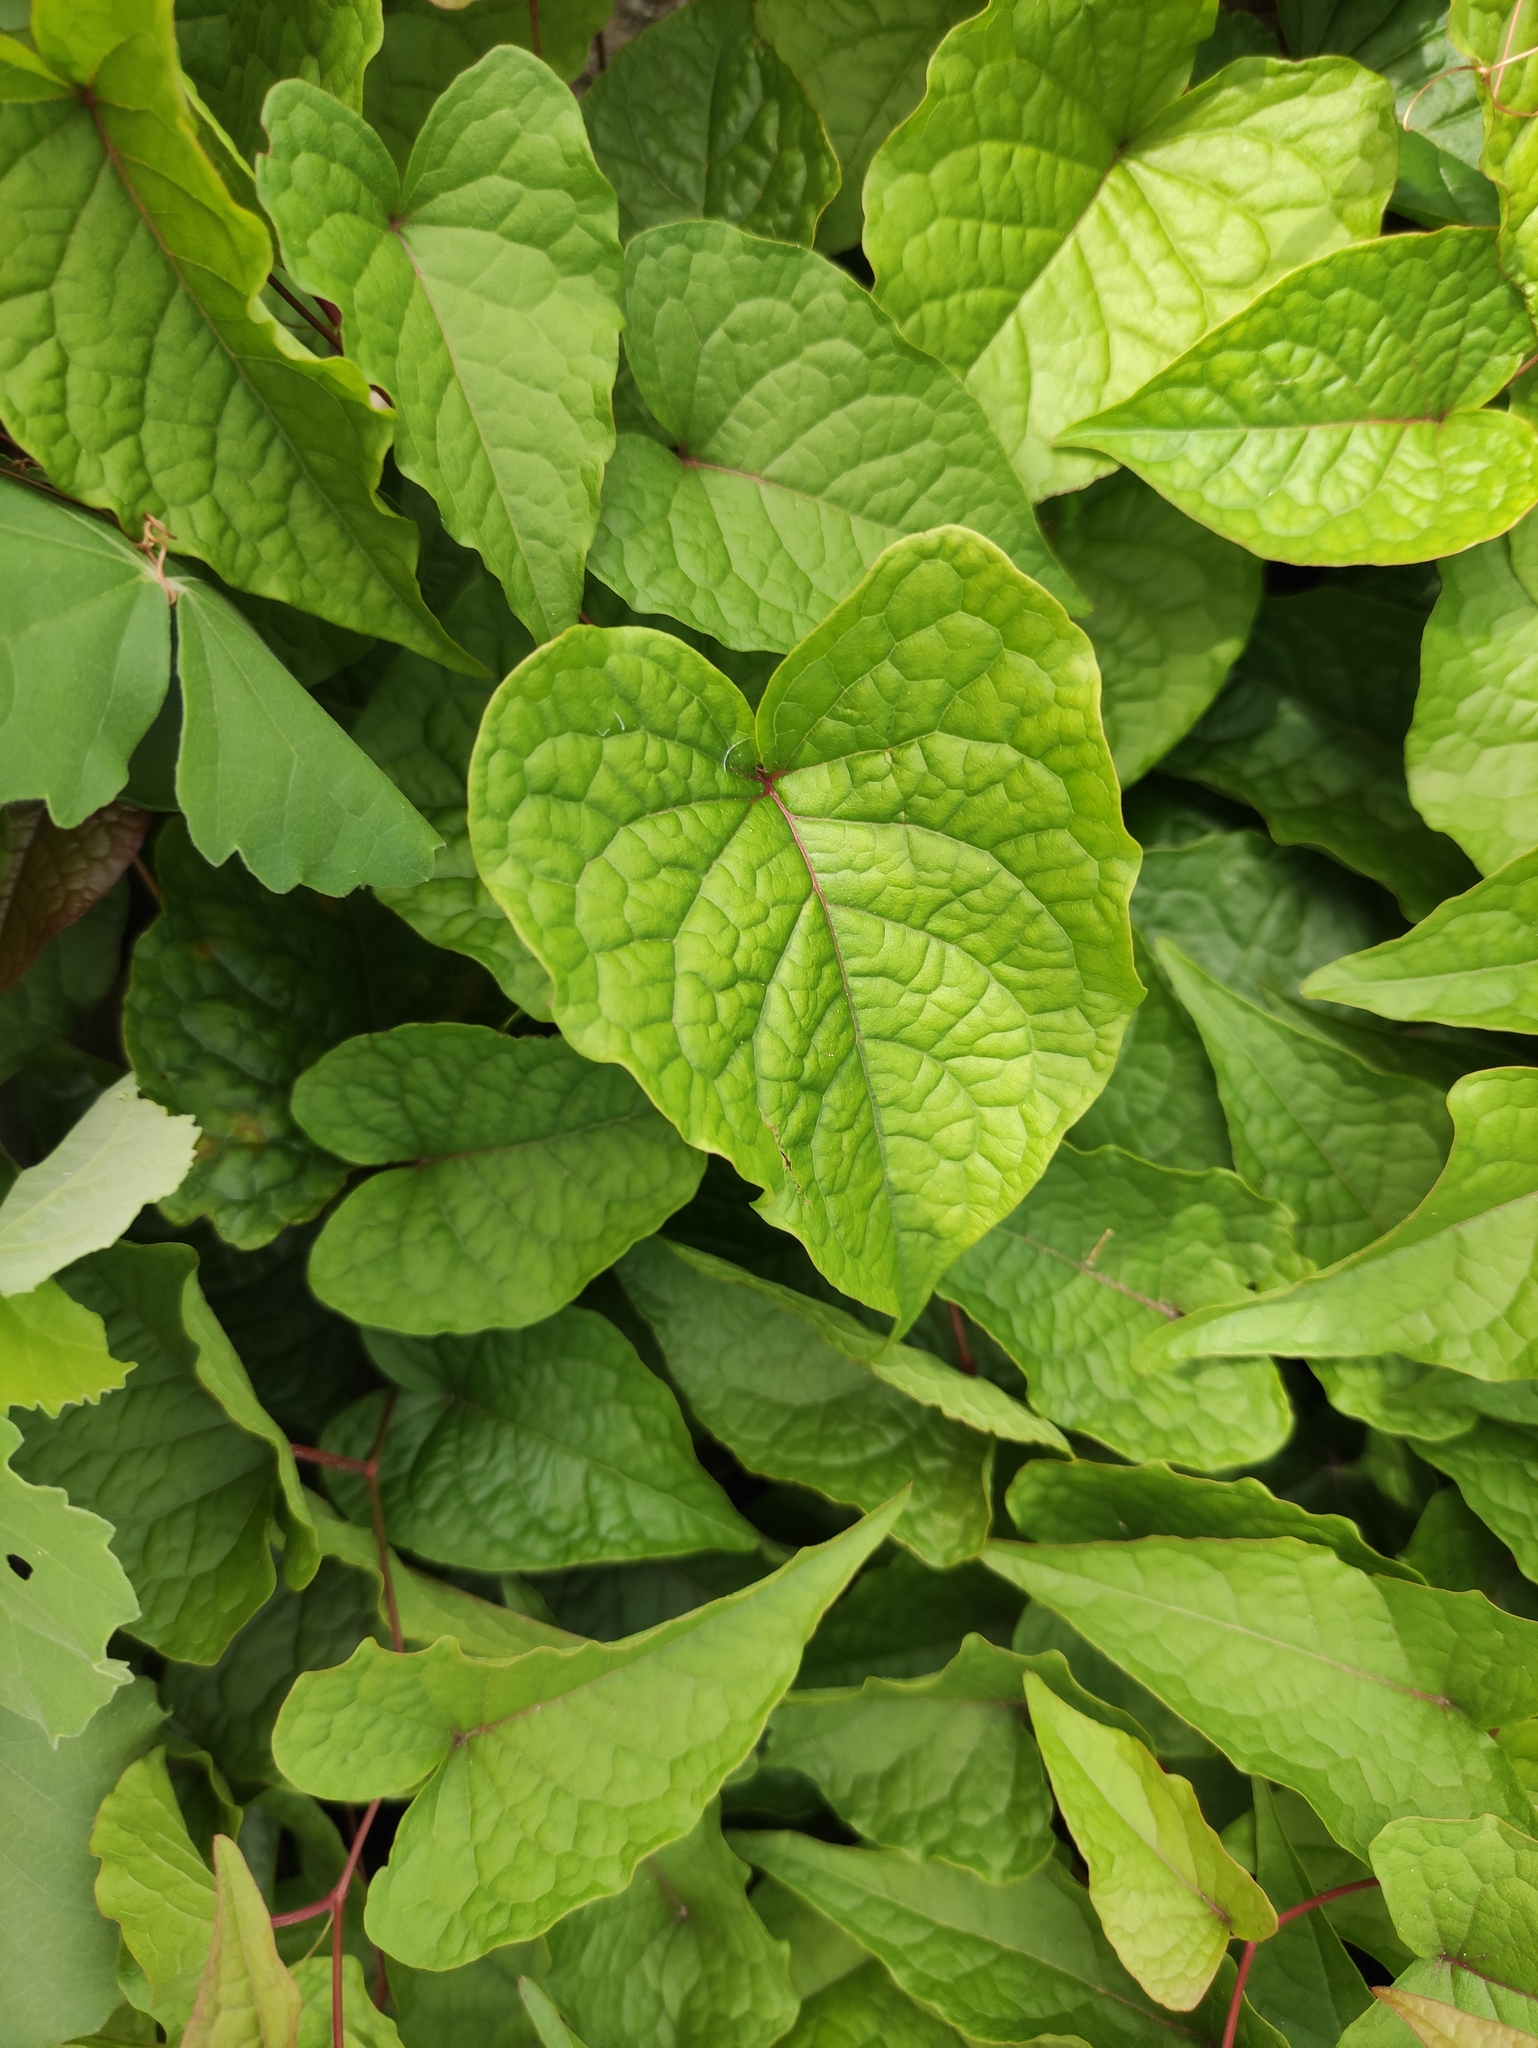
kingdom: Plantae
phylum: Tracheophyta
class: Magnoliopsida
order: Caryophyllales
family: Polygonaceae
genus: Antigonon
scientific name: Antigonon leptopus
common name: Coral vine
